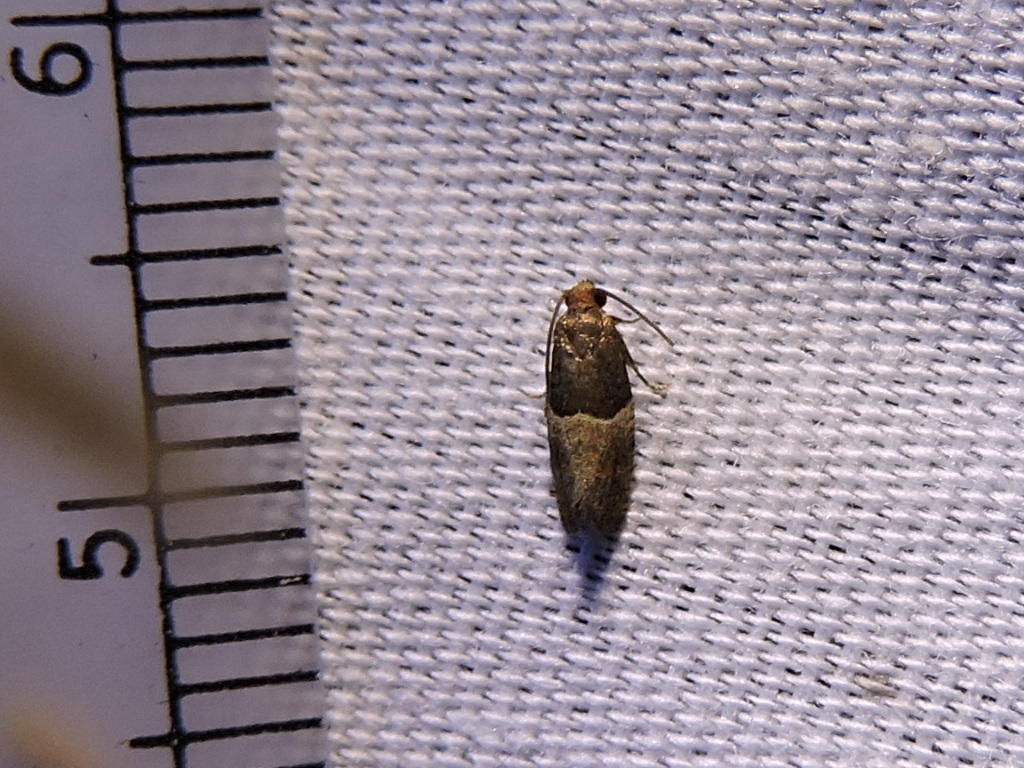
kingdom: Animalia
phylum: Arthropoda
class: Insecta
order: Lepidoptera
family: Tortricidae
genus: Larisa
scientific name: Larisa subsolana
